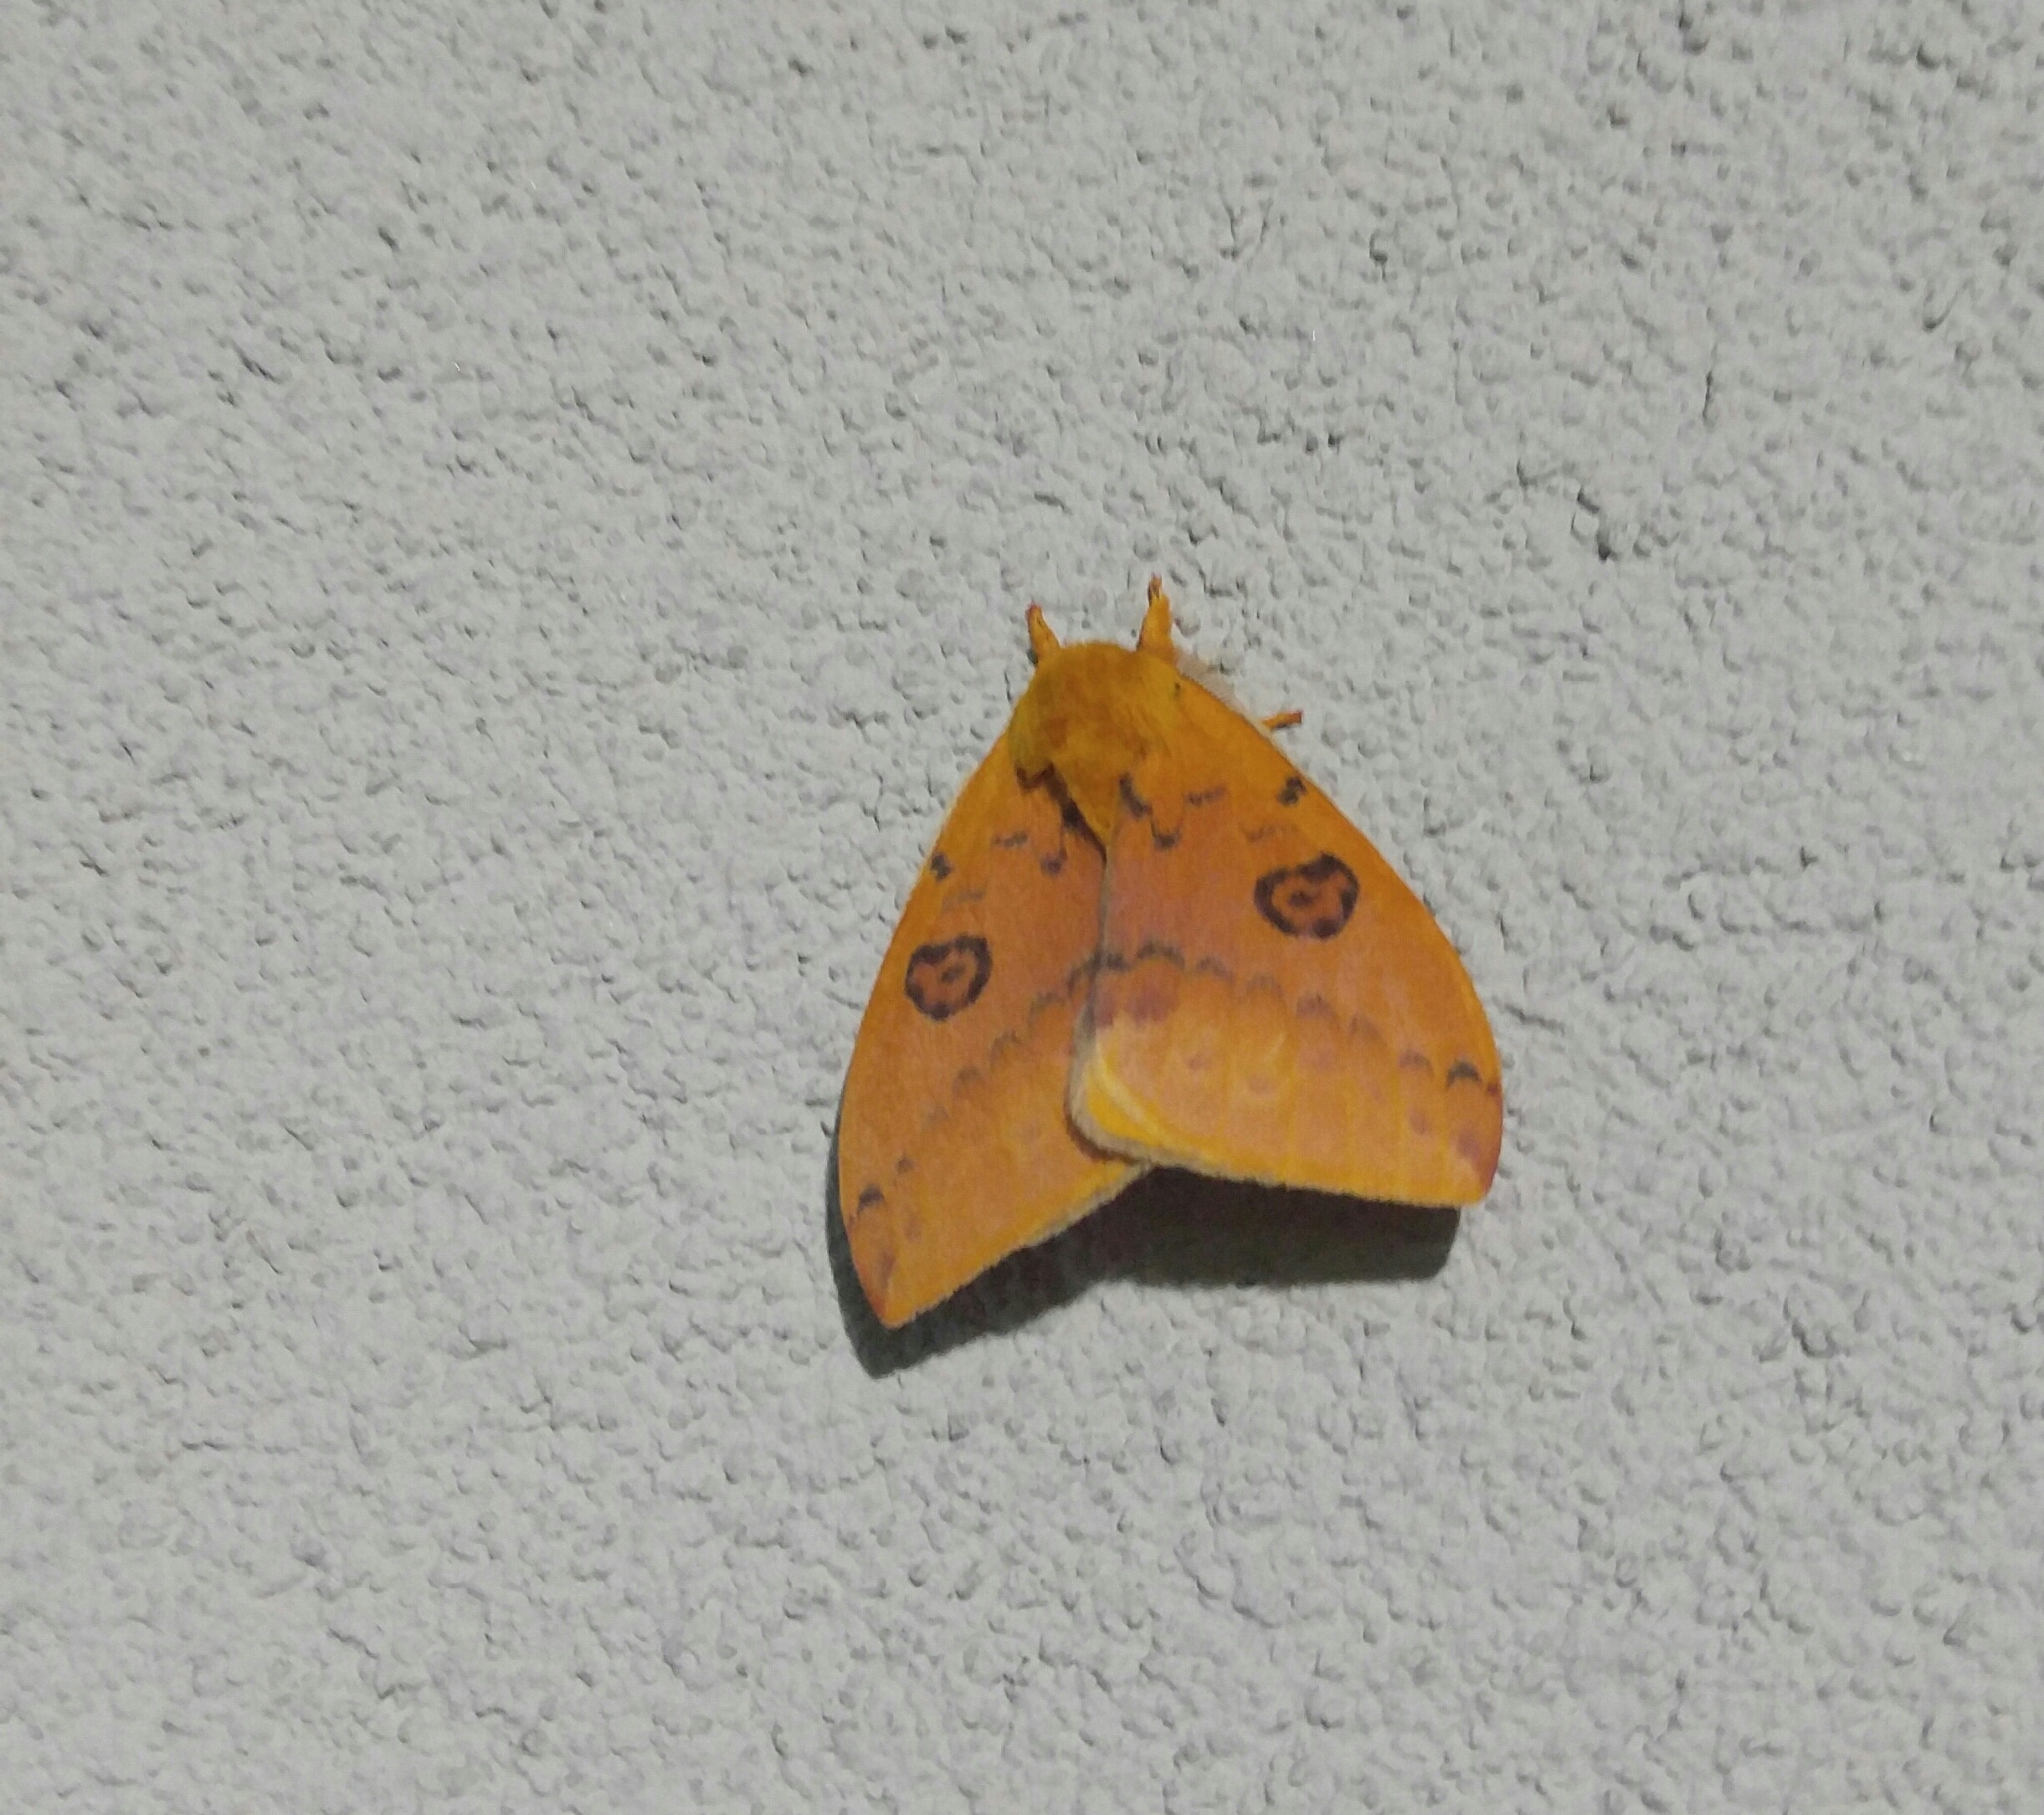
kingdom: Animalia
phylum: Arthropoda
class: Insecta
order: Lepidoptera
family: Saturniidae
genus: Automeris
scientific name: Automeris io
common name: Io moth
